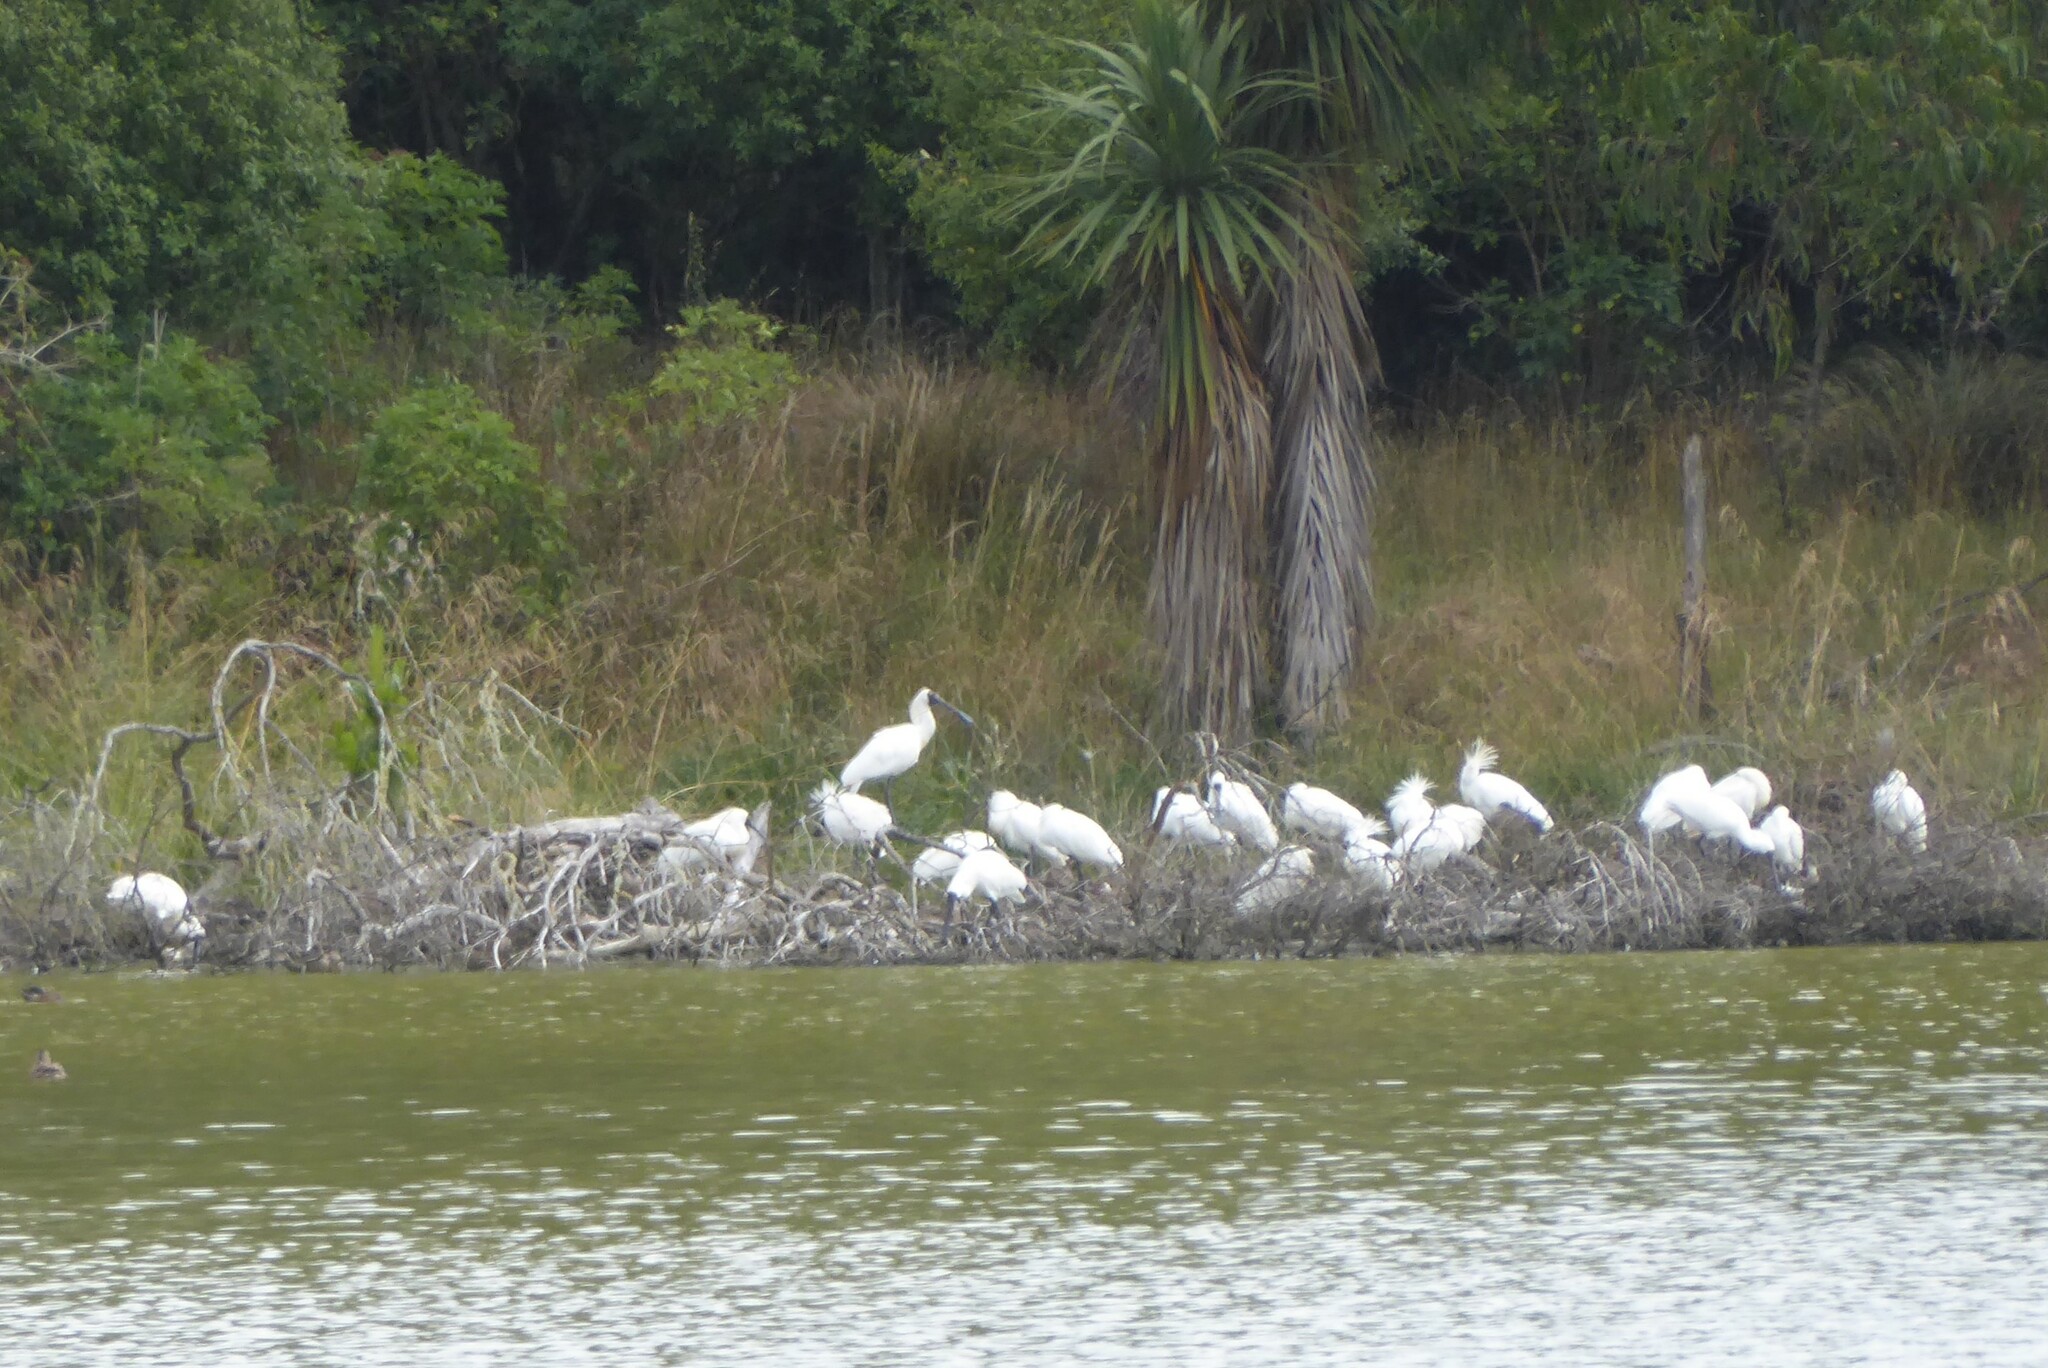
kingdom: Animalia
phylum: Chordata
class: Aves
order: Pelecaniformes
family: Threskiornithidae
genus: Platalea
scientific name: Platalea regia
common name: Royal spoonbill
